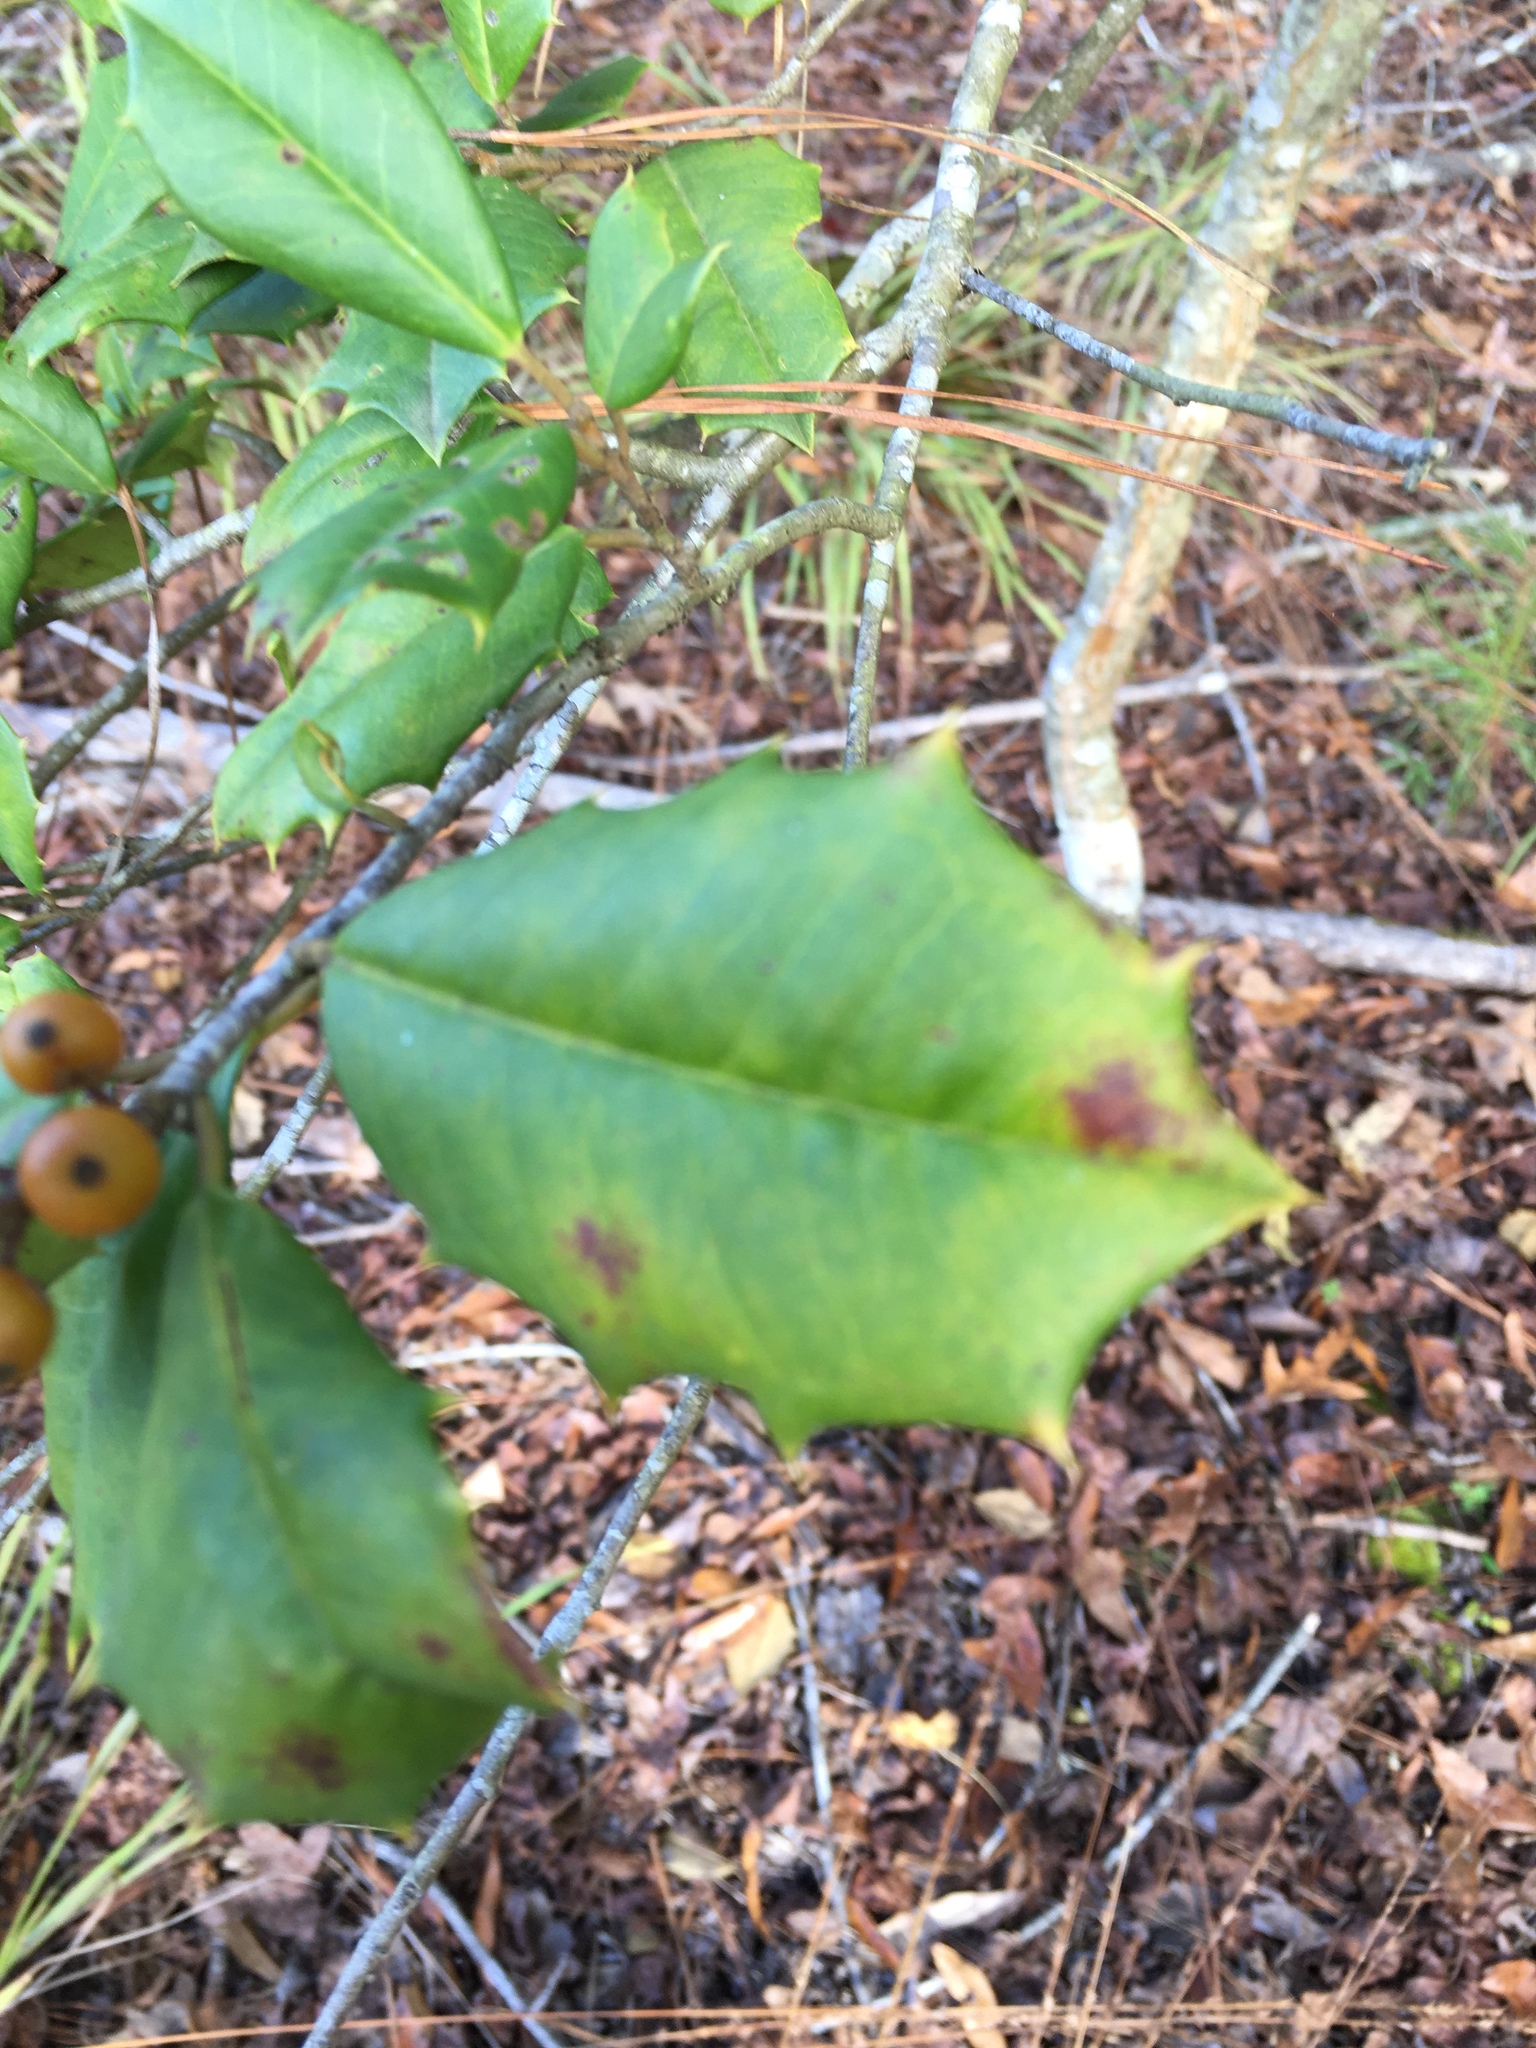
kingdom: Plantae
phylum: Tracheophyta
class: Magnoliopsida
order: Aquifoliales
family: Aquifoliaceae
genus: Ilex
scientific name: Ilex opaca
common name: American holly
